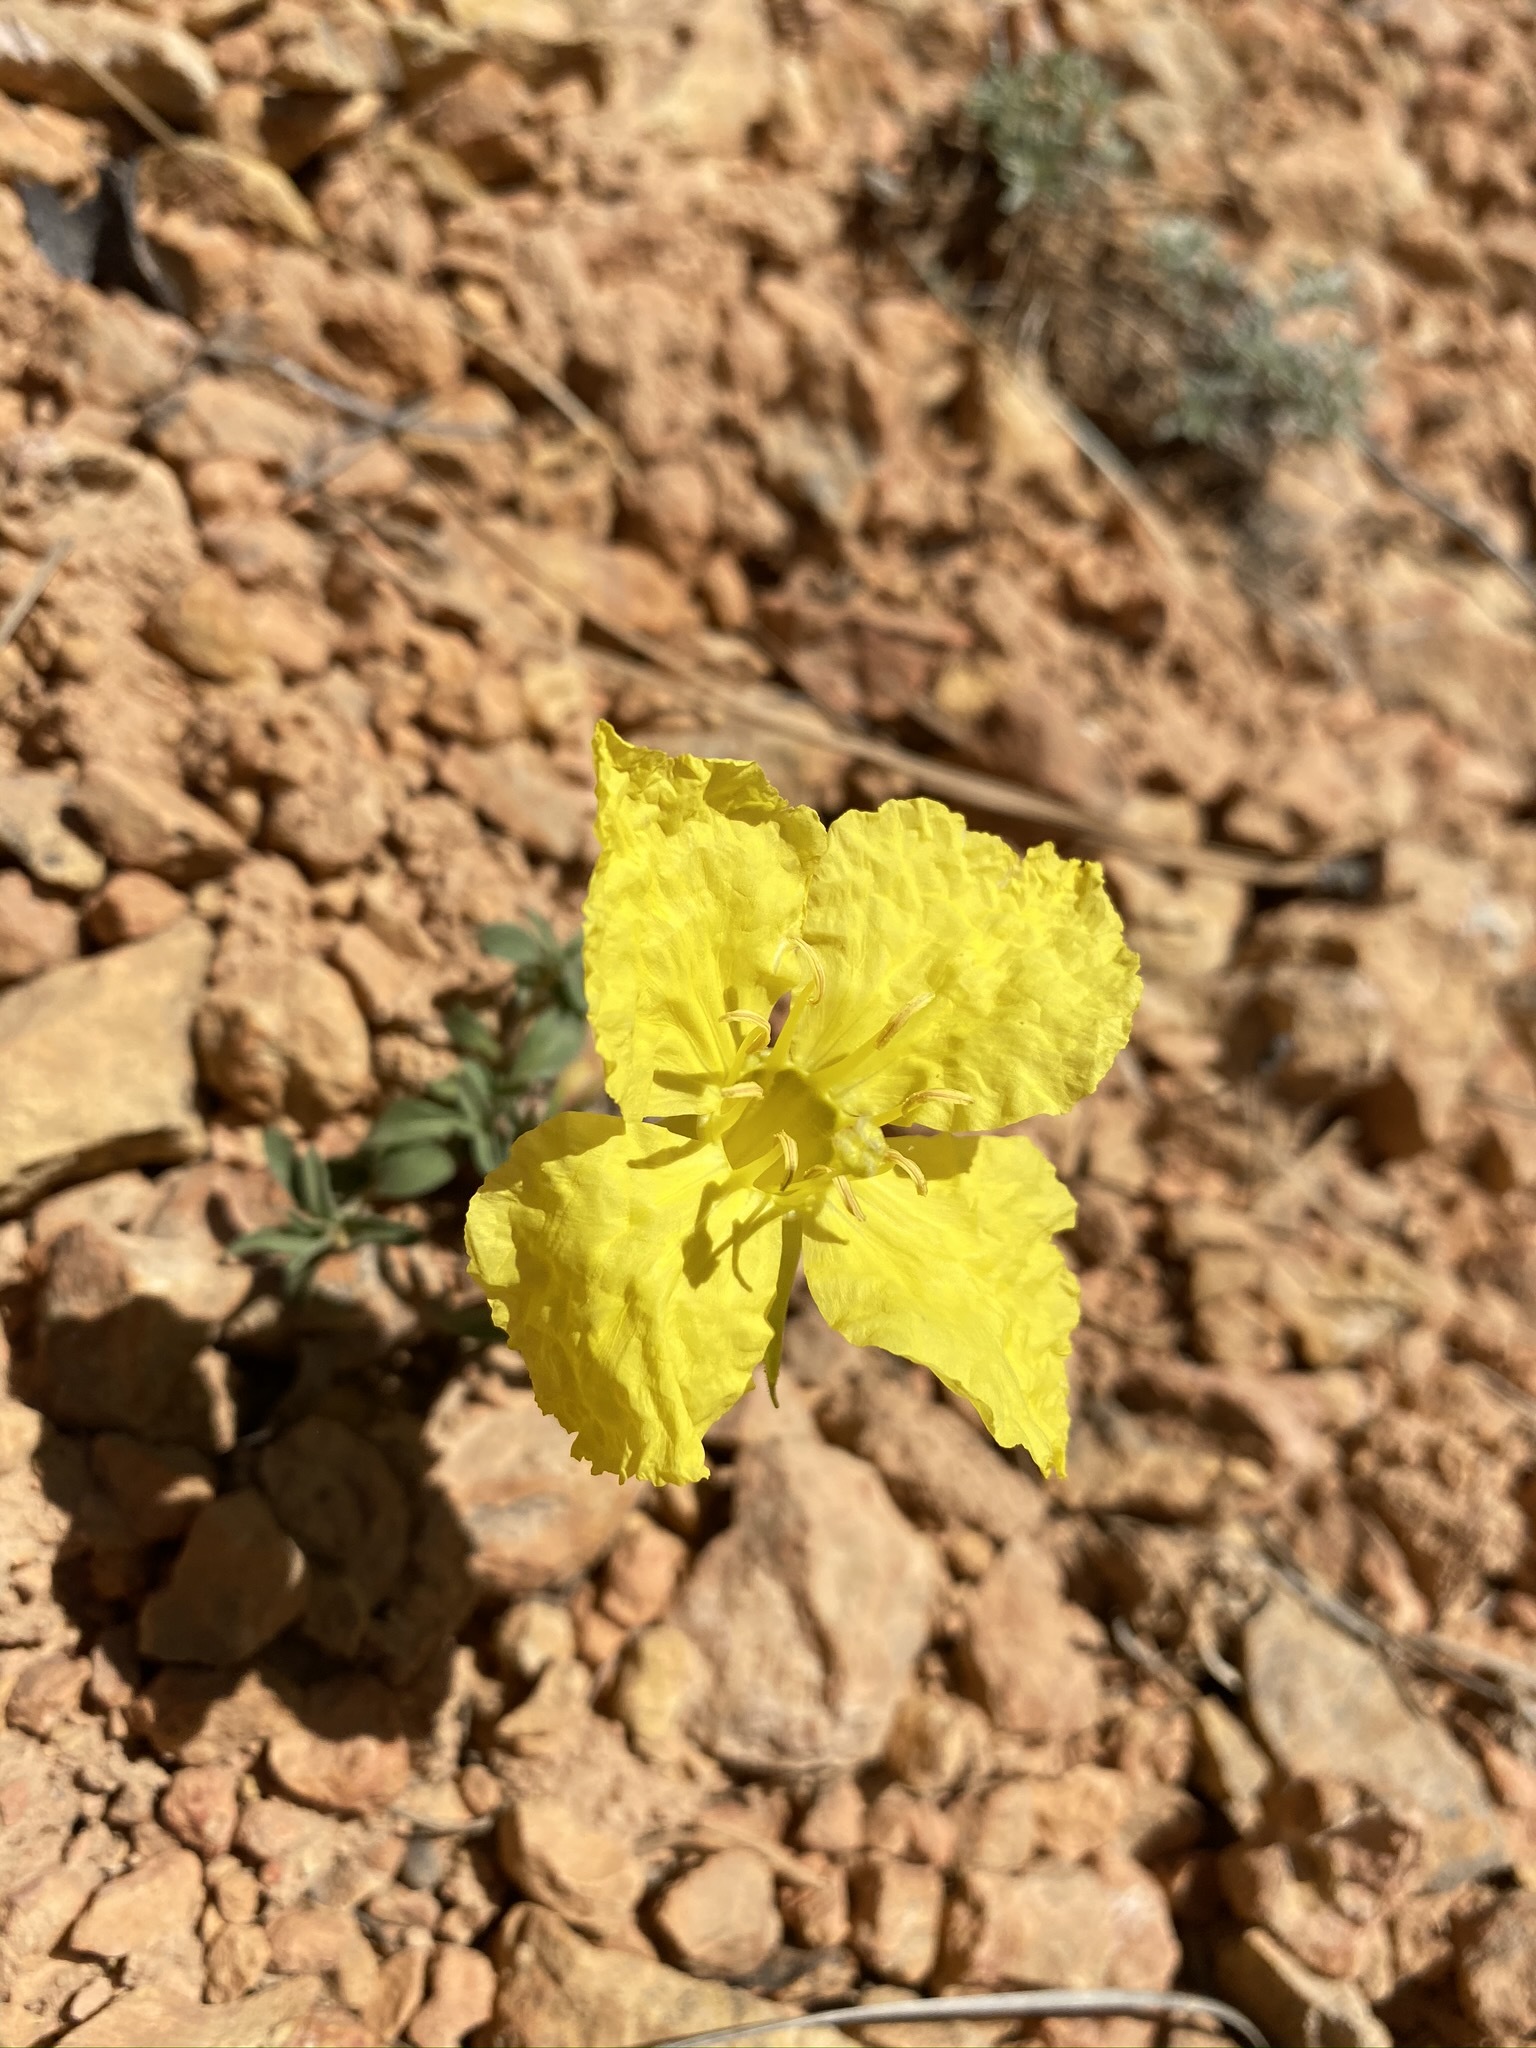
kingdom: Plantae
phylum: Tracheophyta
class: Magnoliopsida
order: Myrtales
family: Onagraceae
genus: Oenothera
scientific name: Oenothera lavandulifolia
